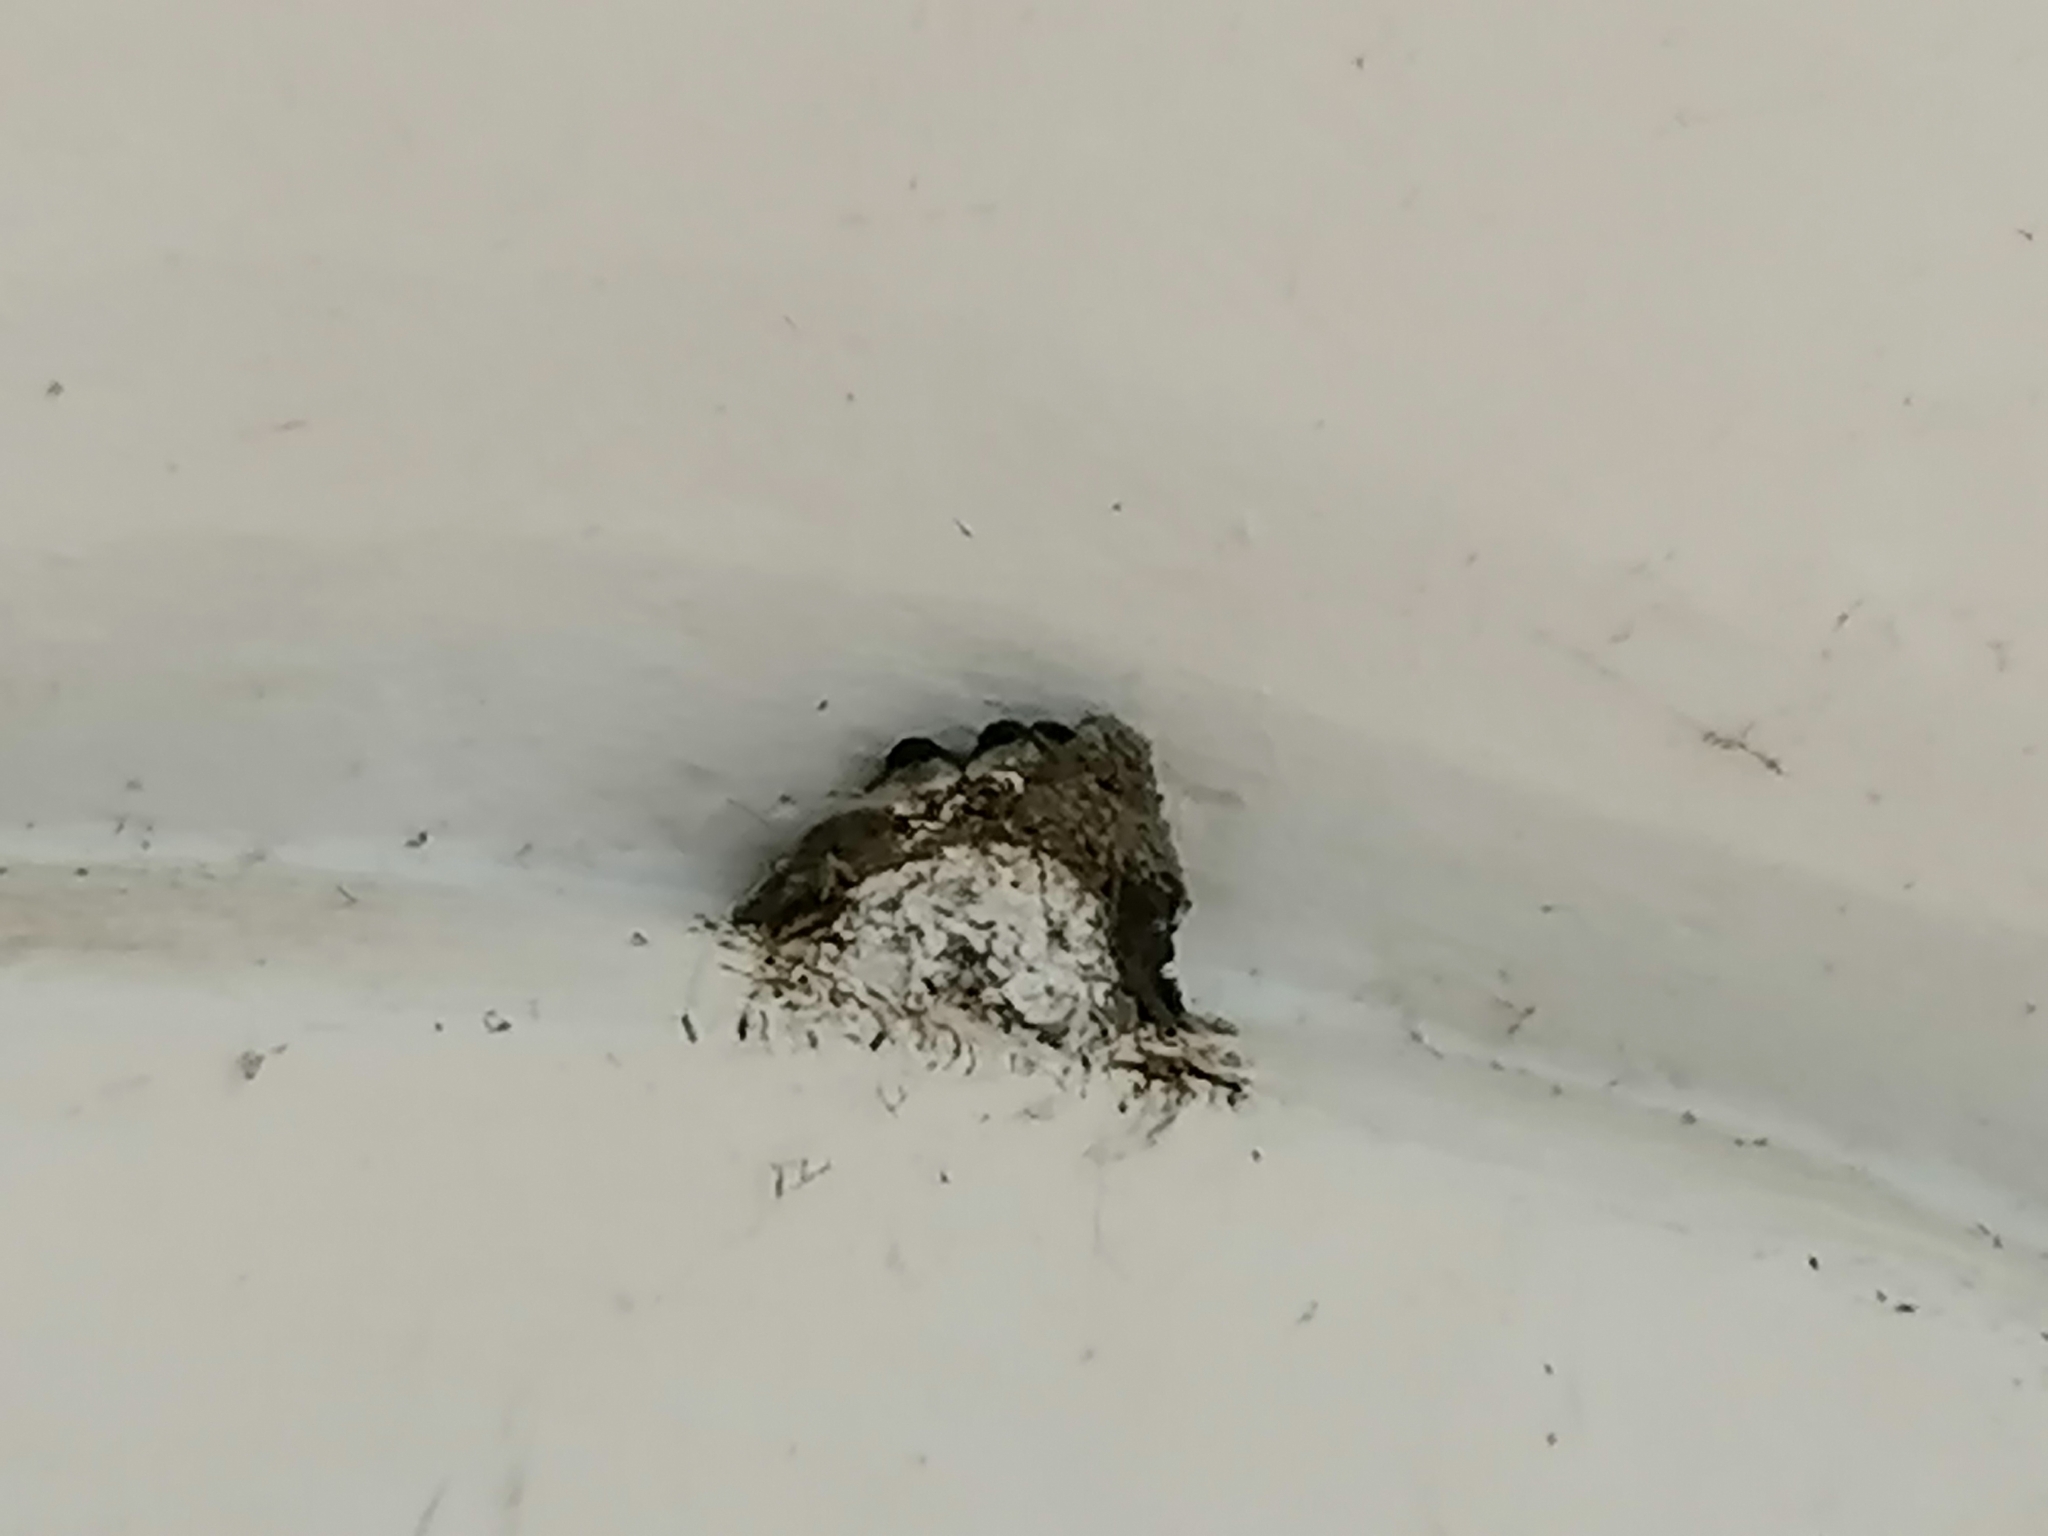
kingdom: Animalia
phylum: Chordata
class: Aves
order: Passeriformes
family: Hirundinidae
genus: Delichon
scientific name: Delichon urbicum
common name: Common house martin
